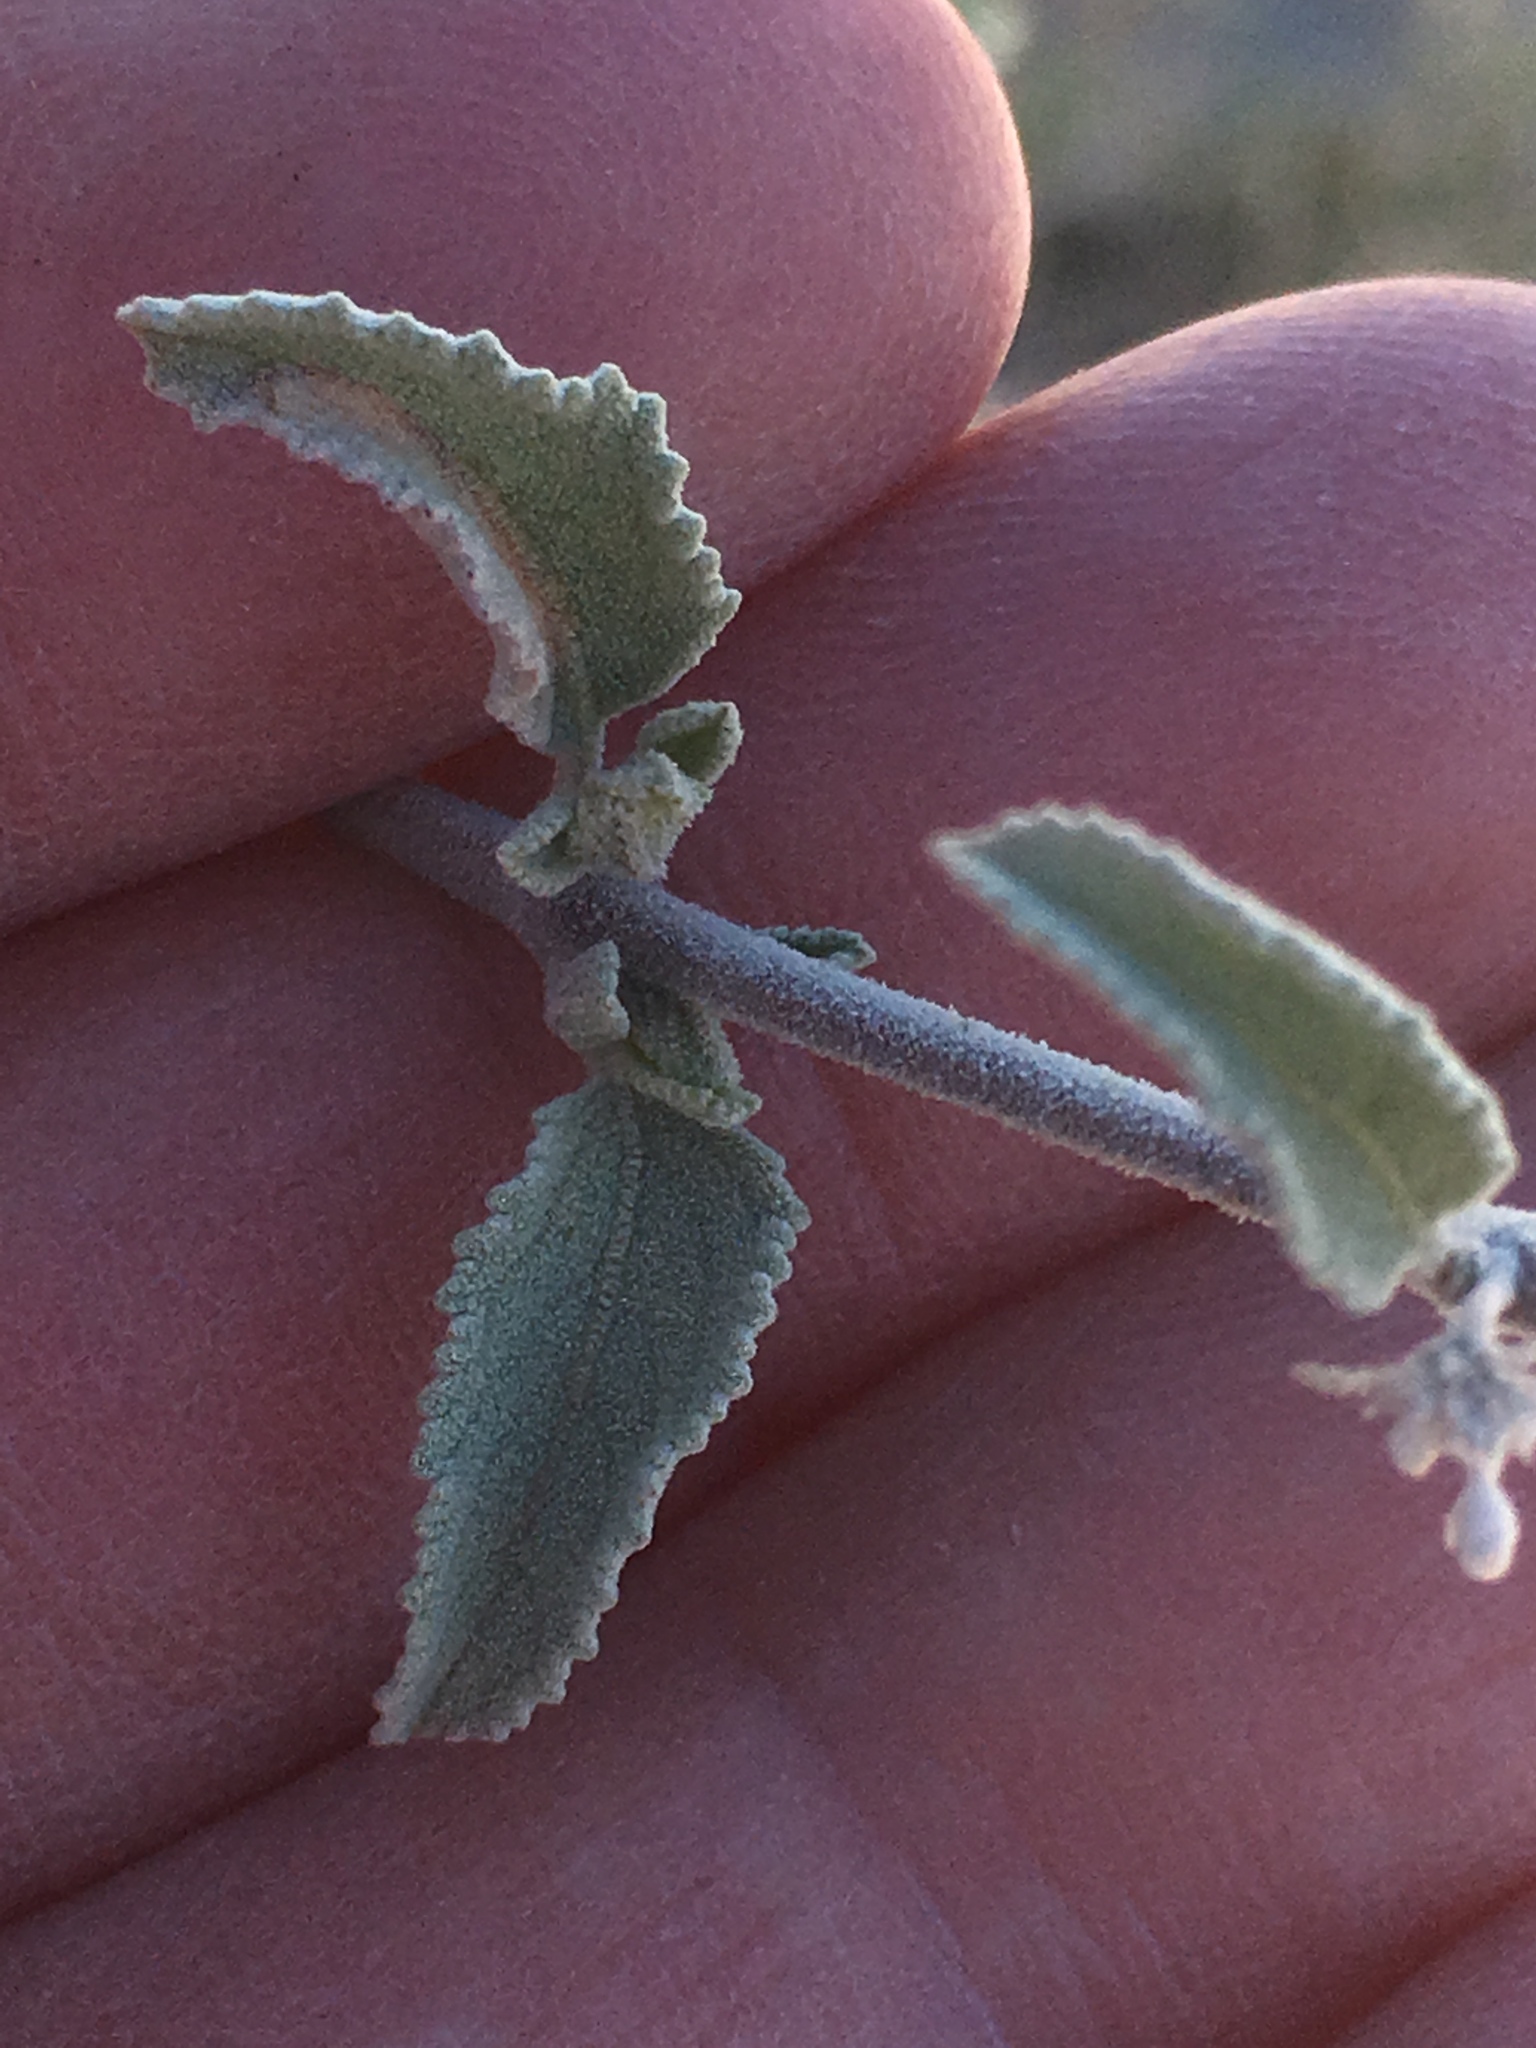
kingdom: Plantae
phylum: Tracheophyta
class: Magnoliopsida
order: Lamiales
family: Lamiaceae
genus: Condea
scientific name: Condea emoryi
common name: Chia
